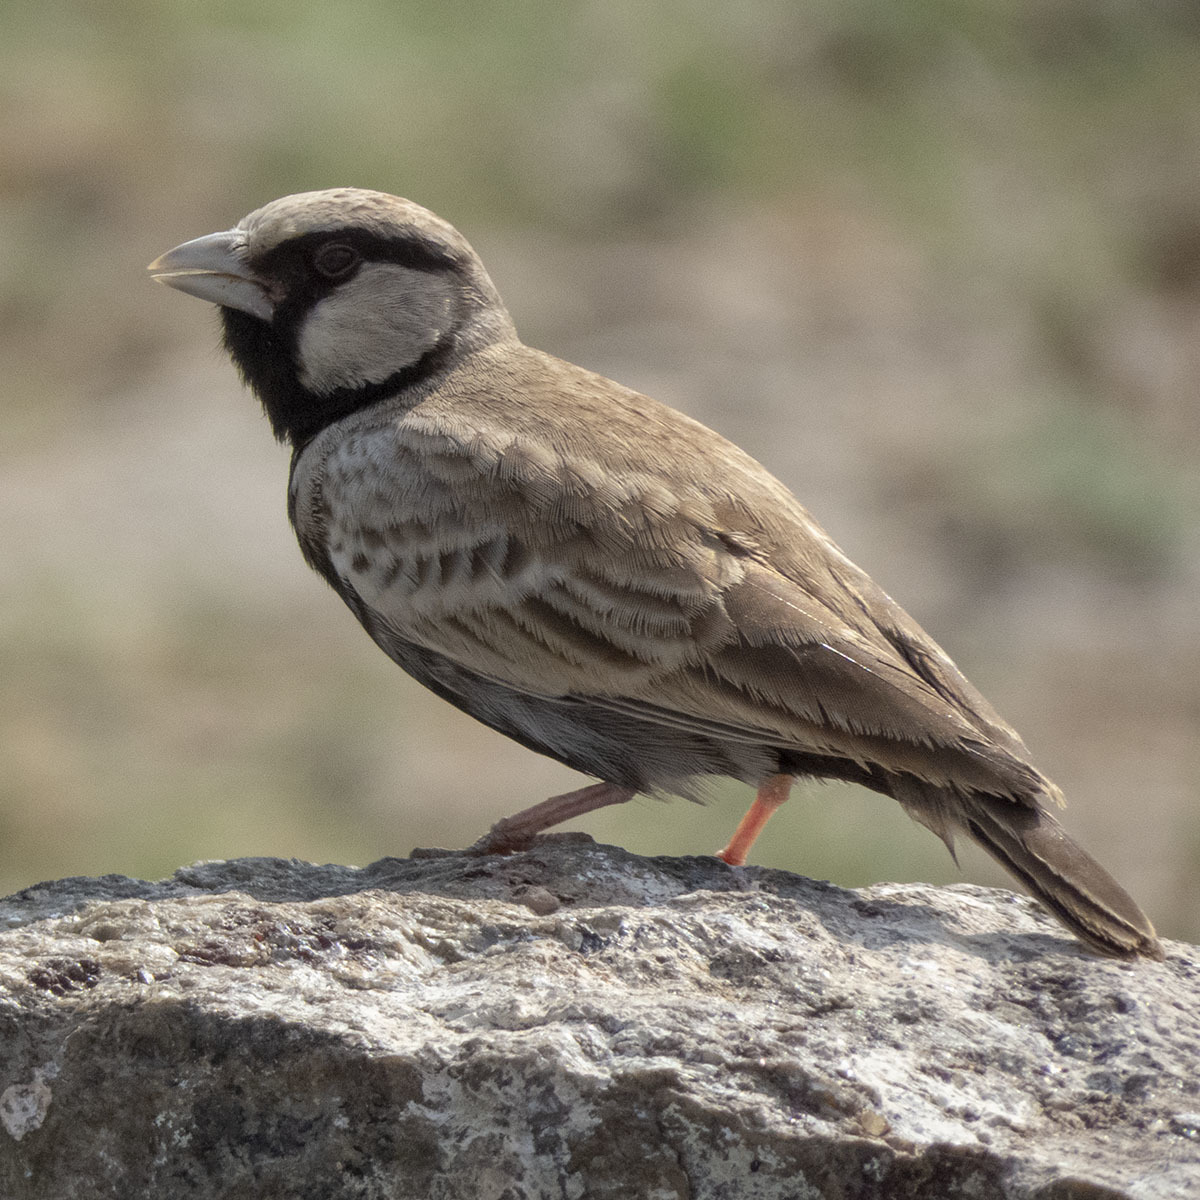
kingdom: Animalia
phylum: Chordata
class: Aves
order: Passeriformes
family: Alaudidae
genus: Eremopterix
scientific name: Eremopterix griseus
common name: Ashy-crowned sparrow-lark
